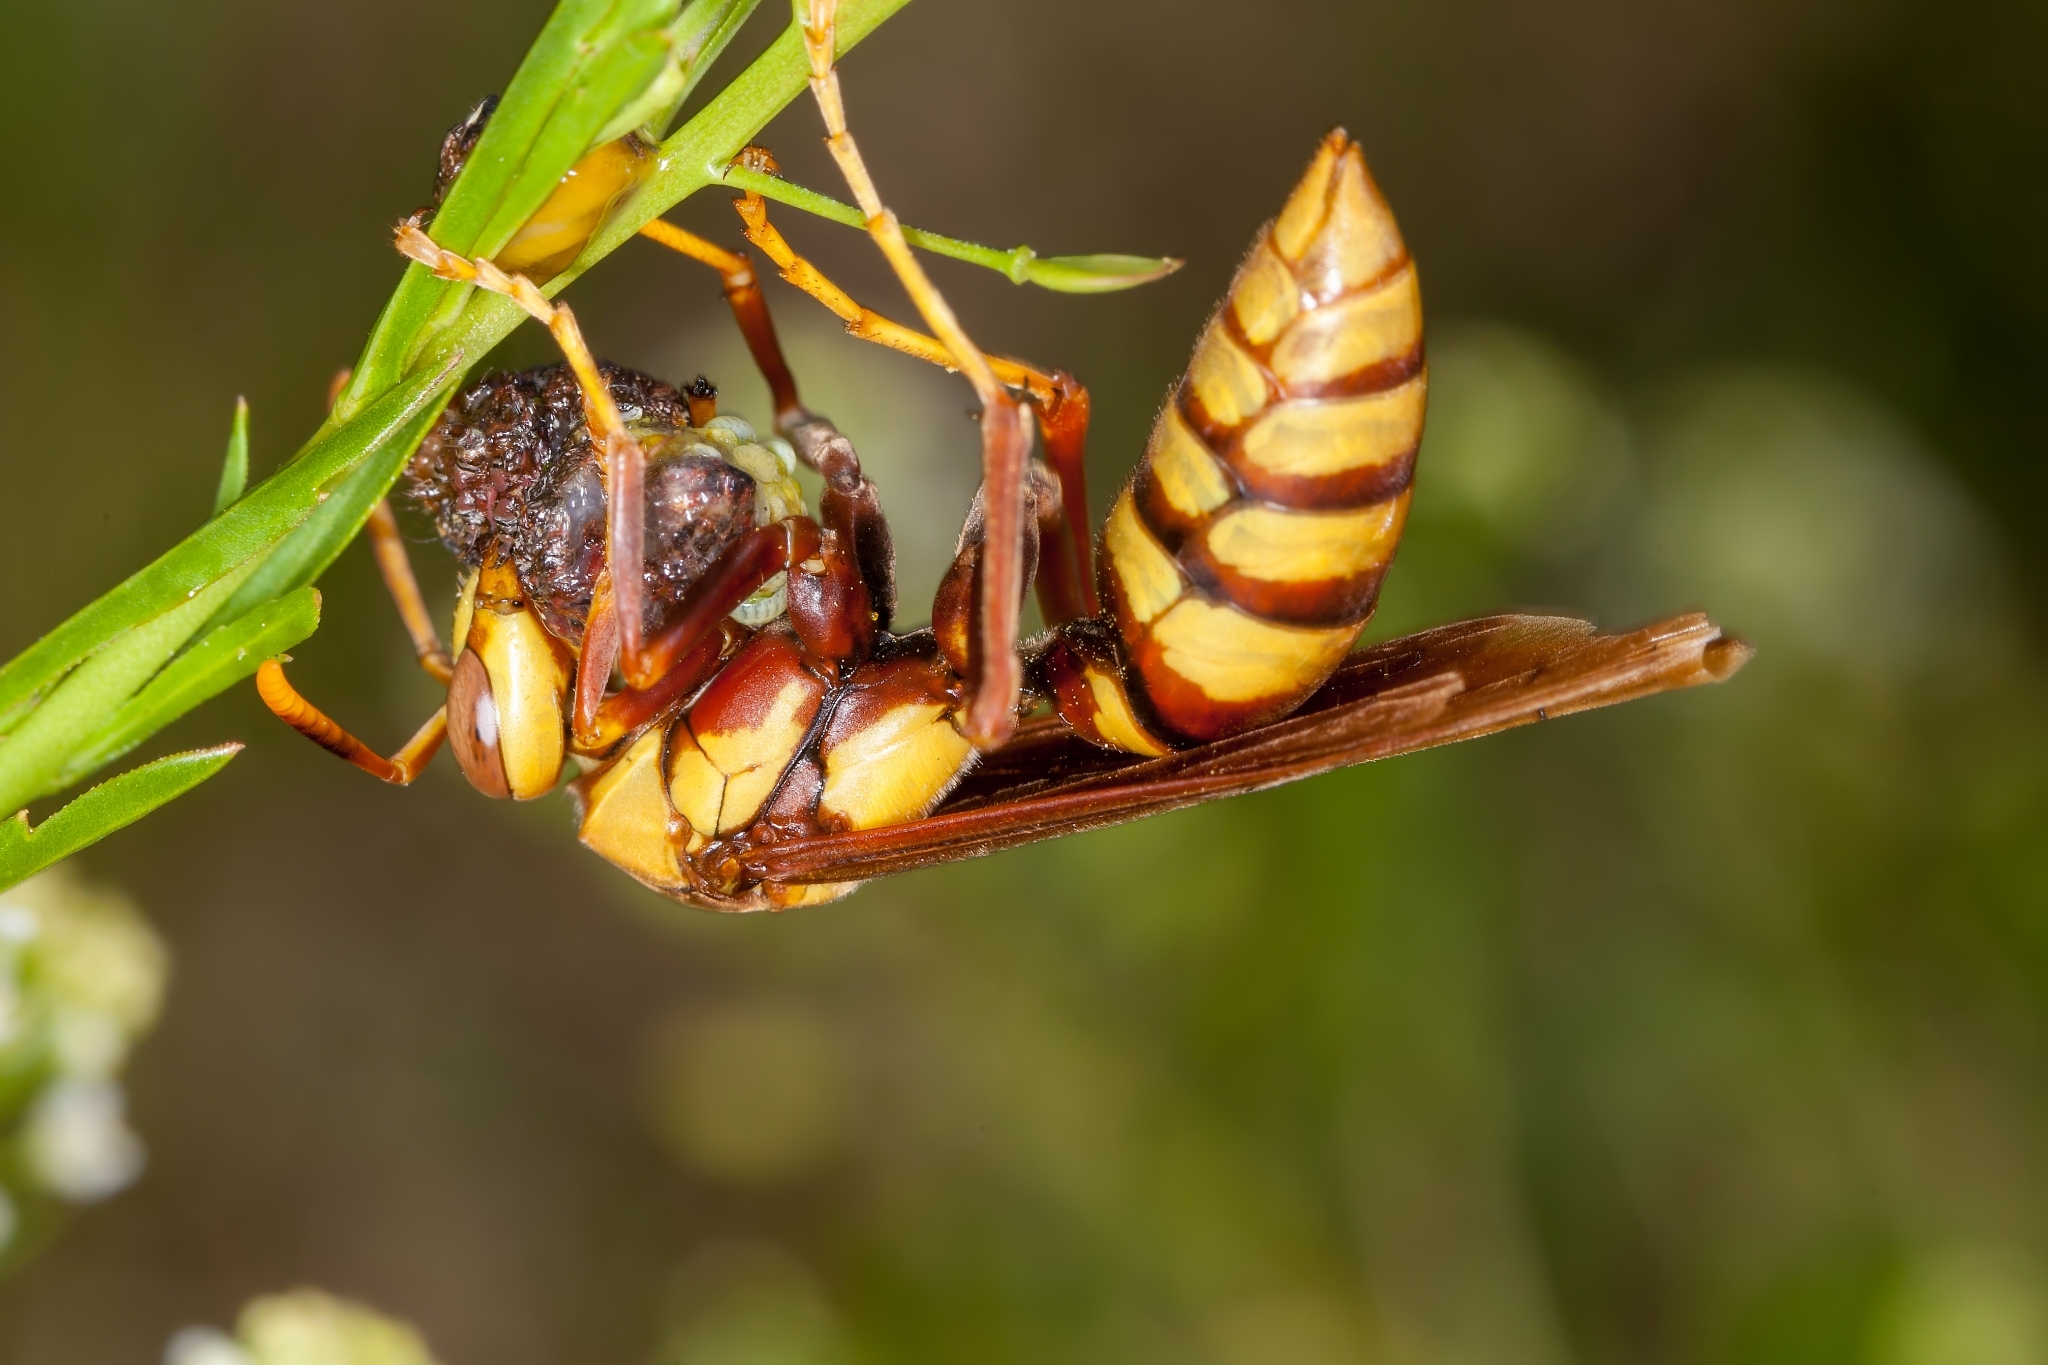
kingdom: Animalia
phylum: Arthropoda
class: Insecta
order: Hymenoptera
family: Eumenidae
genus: Polistes
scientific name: Polistes major
